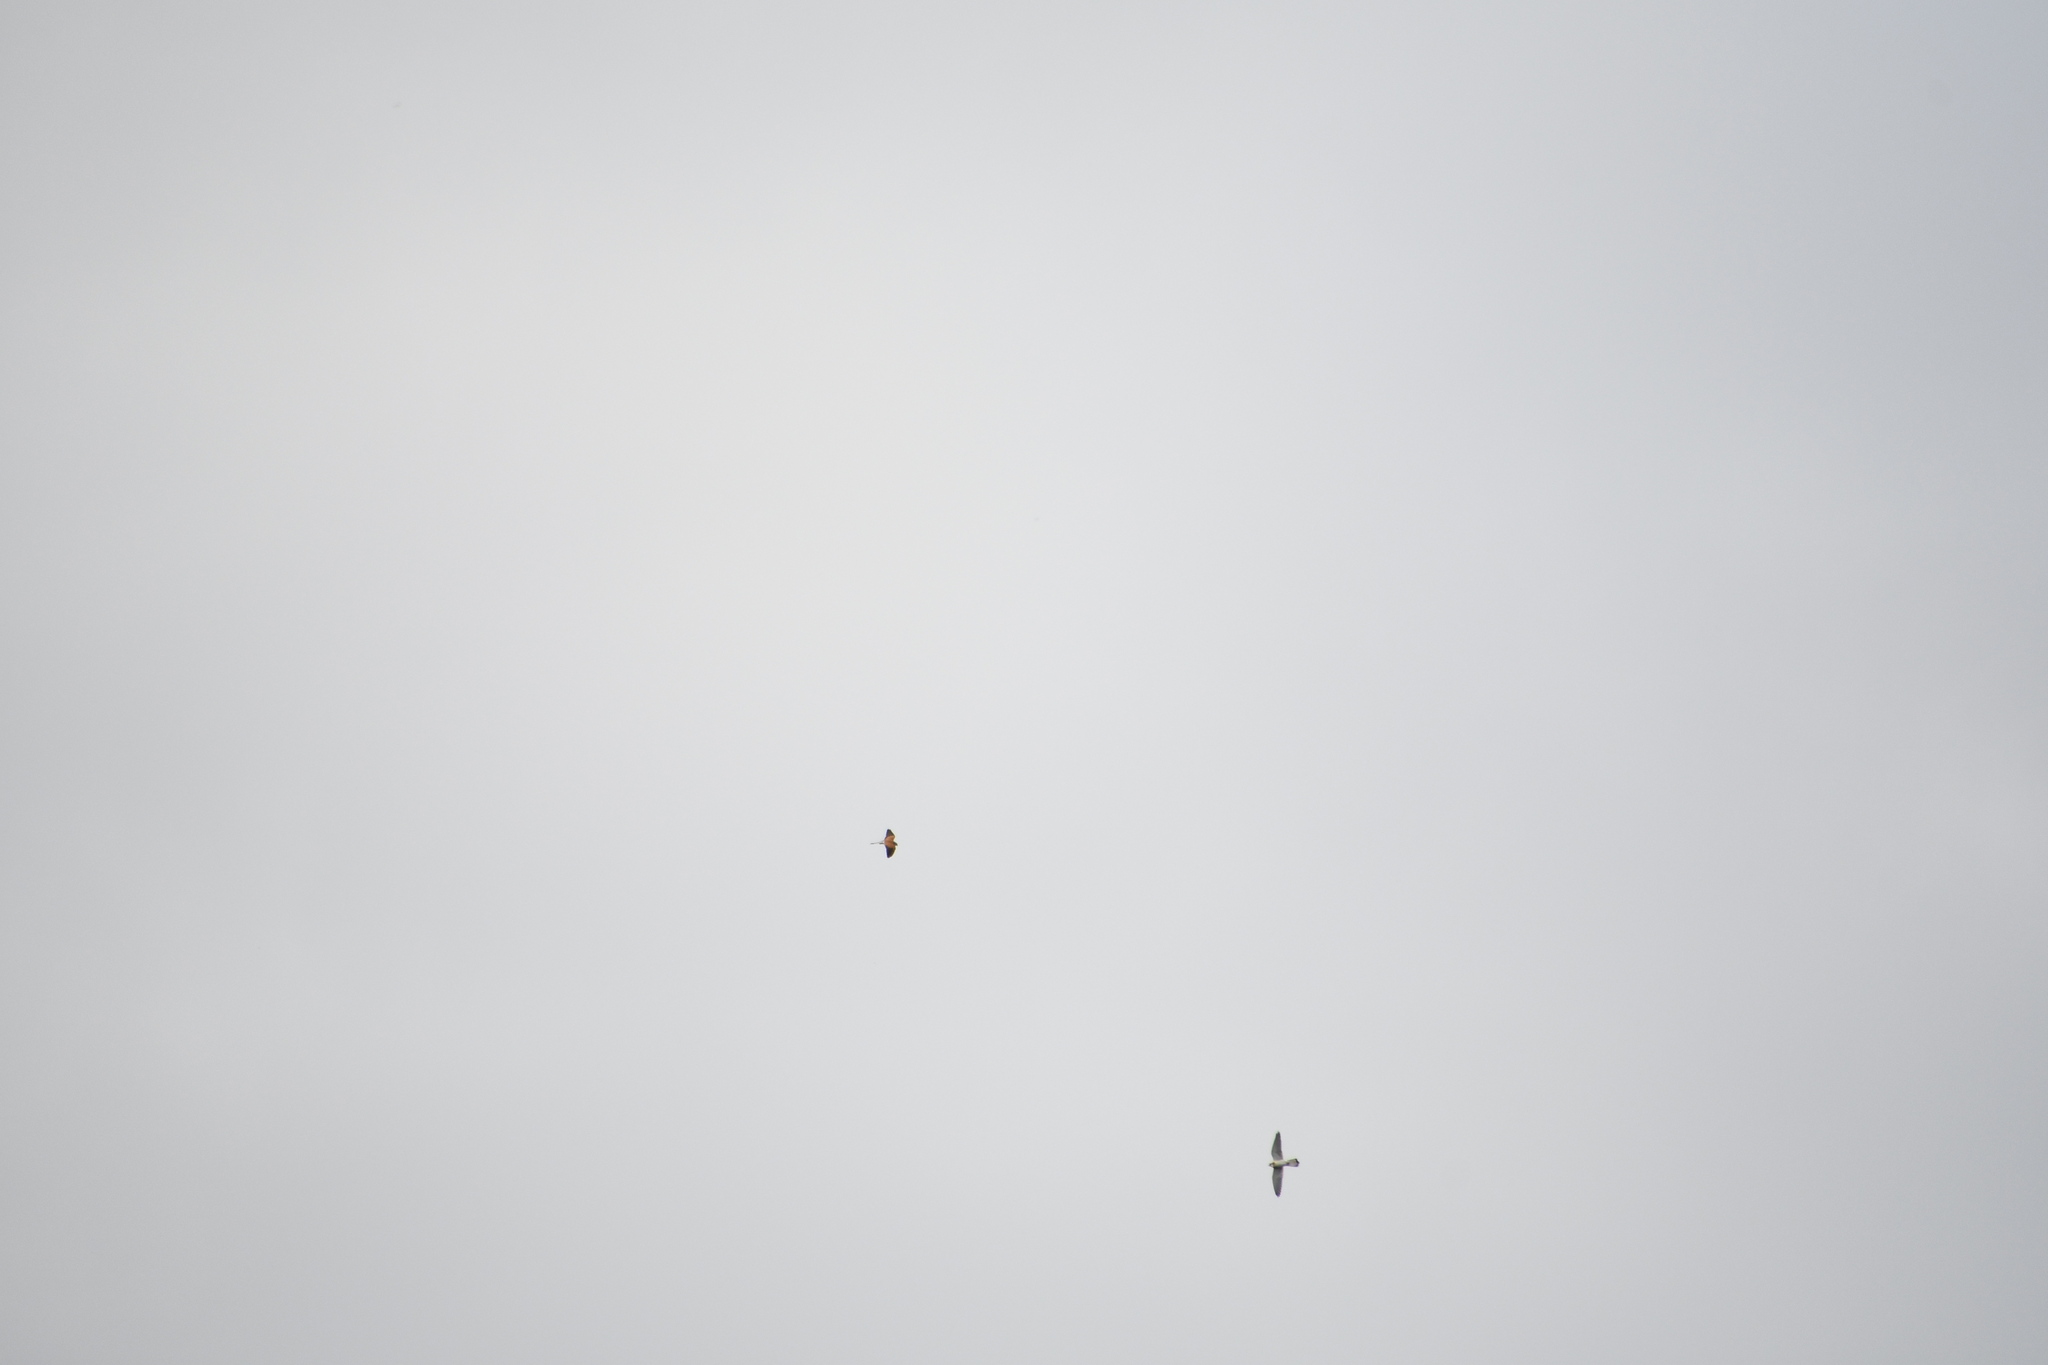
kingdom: Animalia
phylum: Chordata
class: Aves
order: Falconiformes
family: Falconidae
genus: Falco
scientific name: Falco cenchroides
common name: Nankeen kestrel
